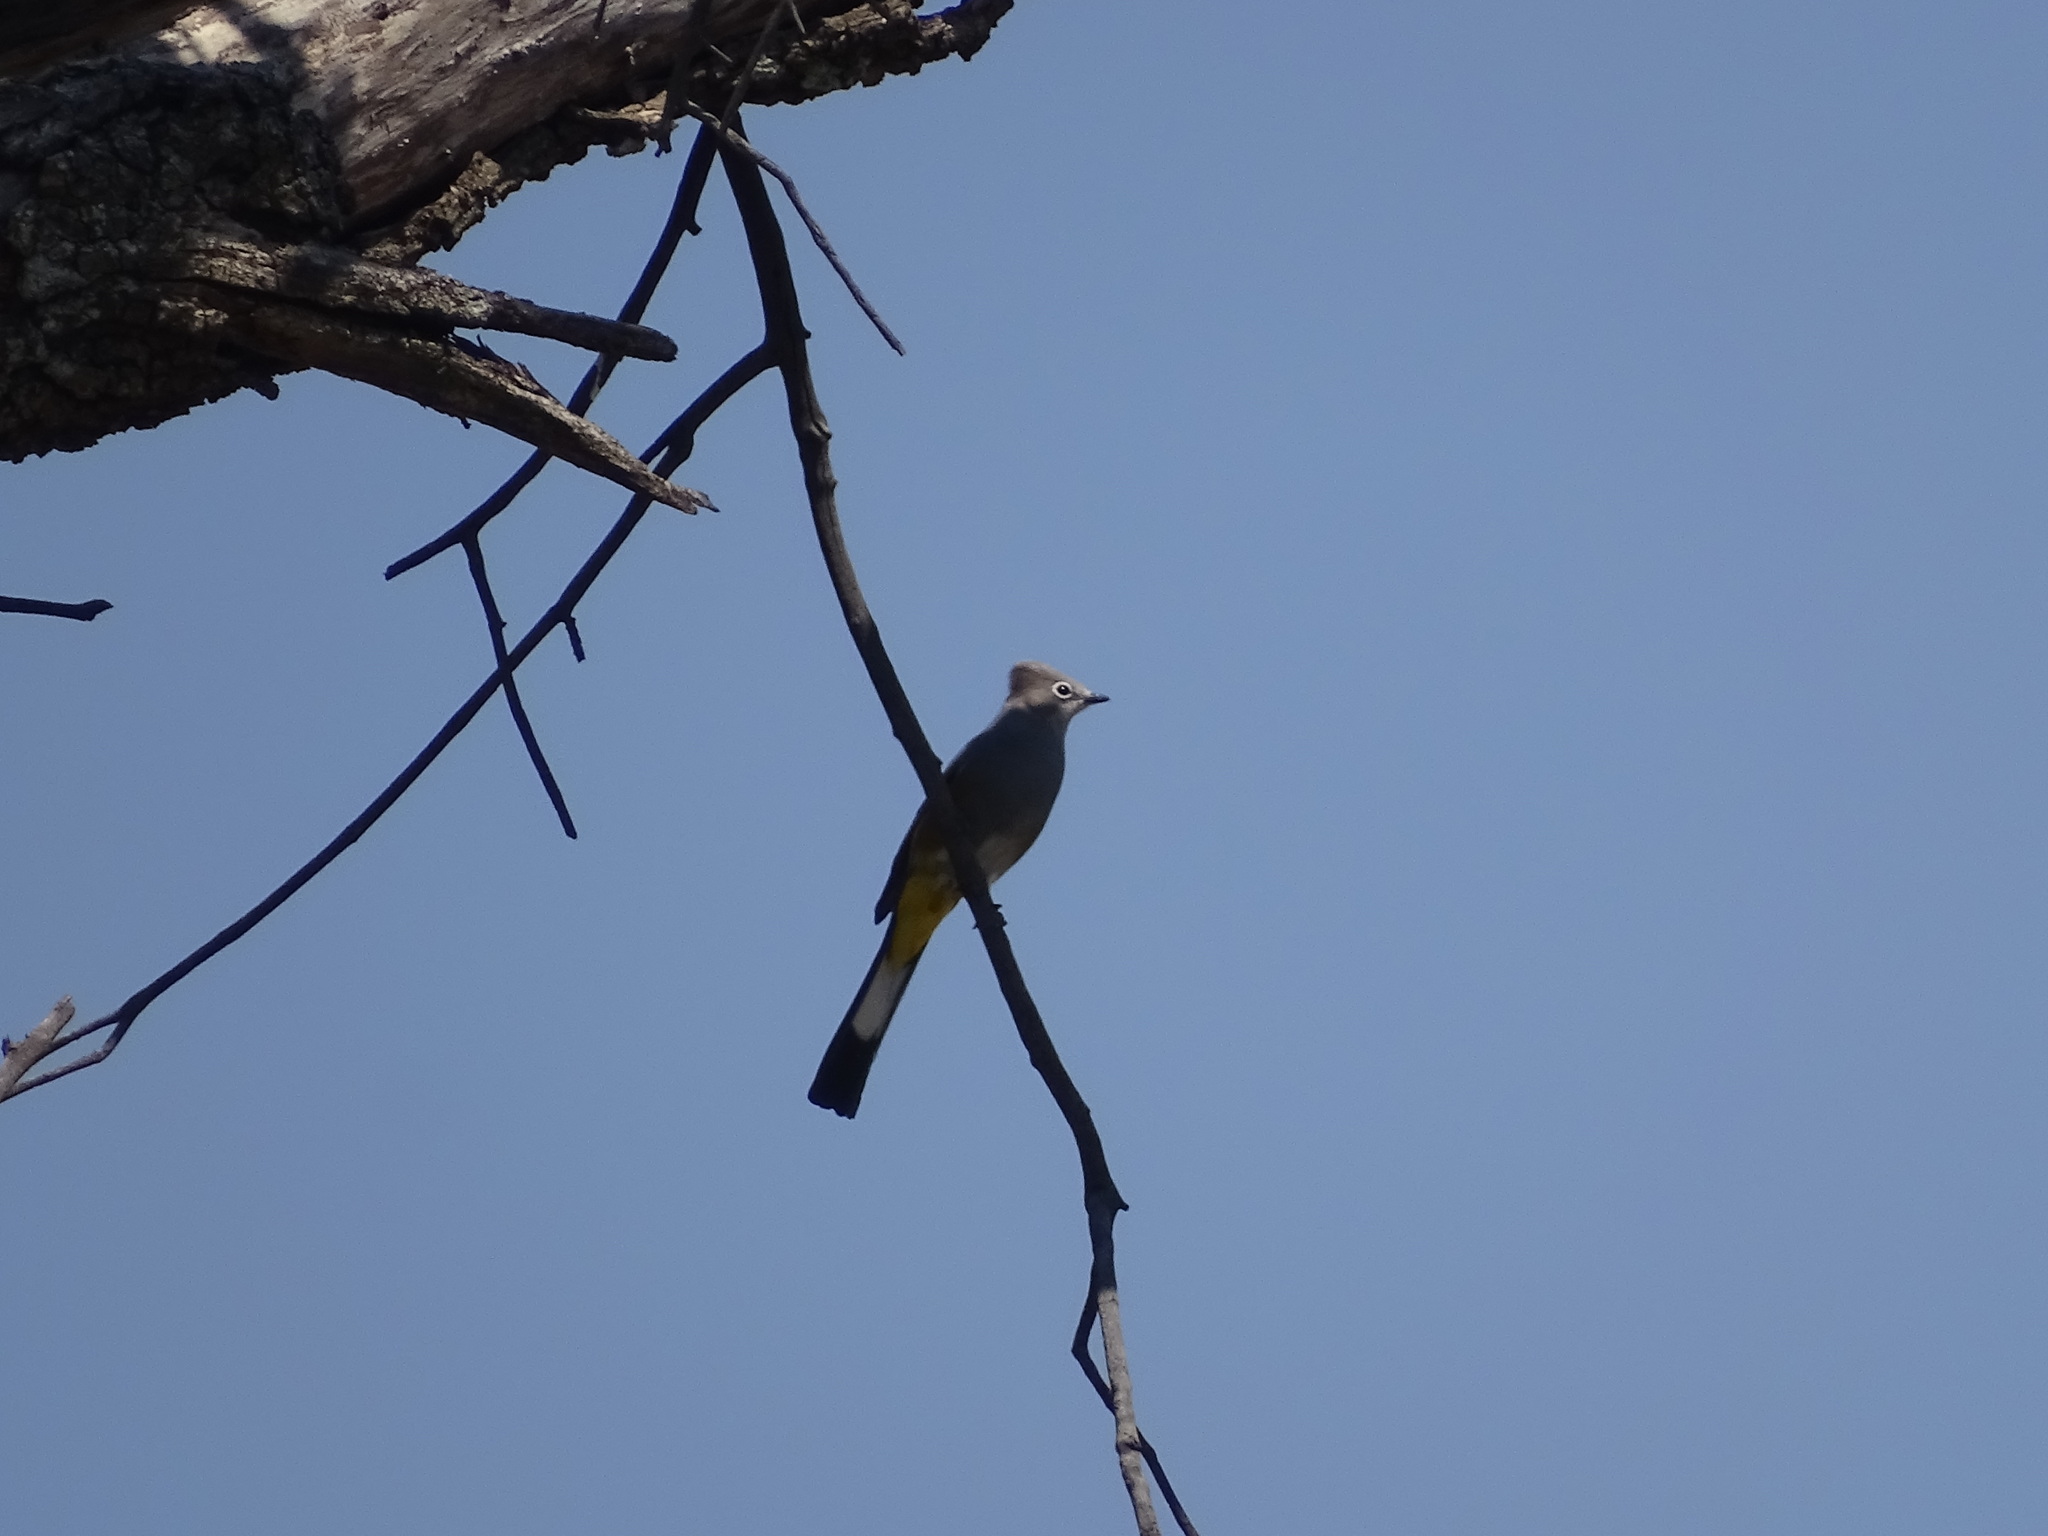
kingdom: Animalia
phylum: Chordata
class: Aves
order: Passeriformes
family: Ptilogonatidae
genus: Ptilogonys
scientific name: Ptilogonys cinereus
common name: Gray silky-flycatcher
